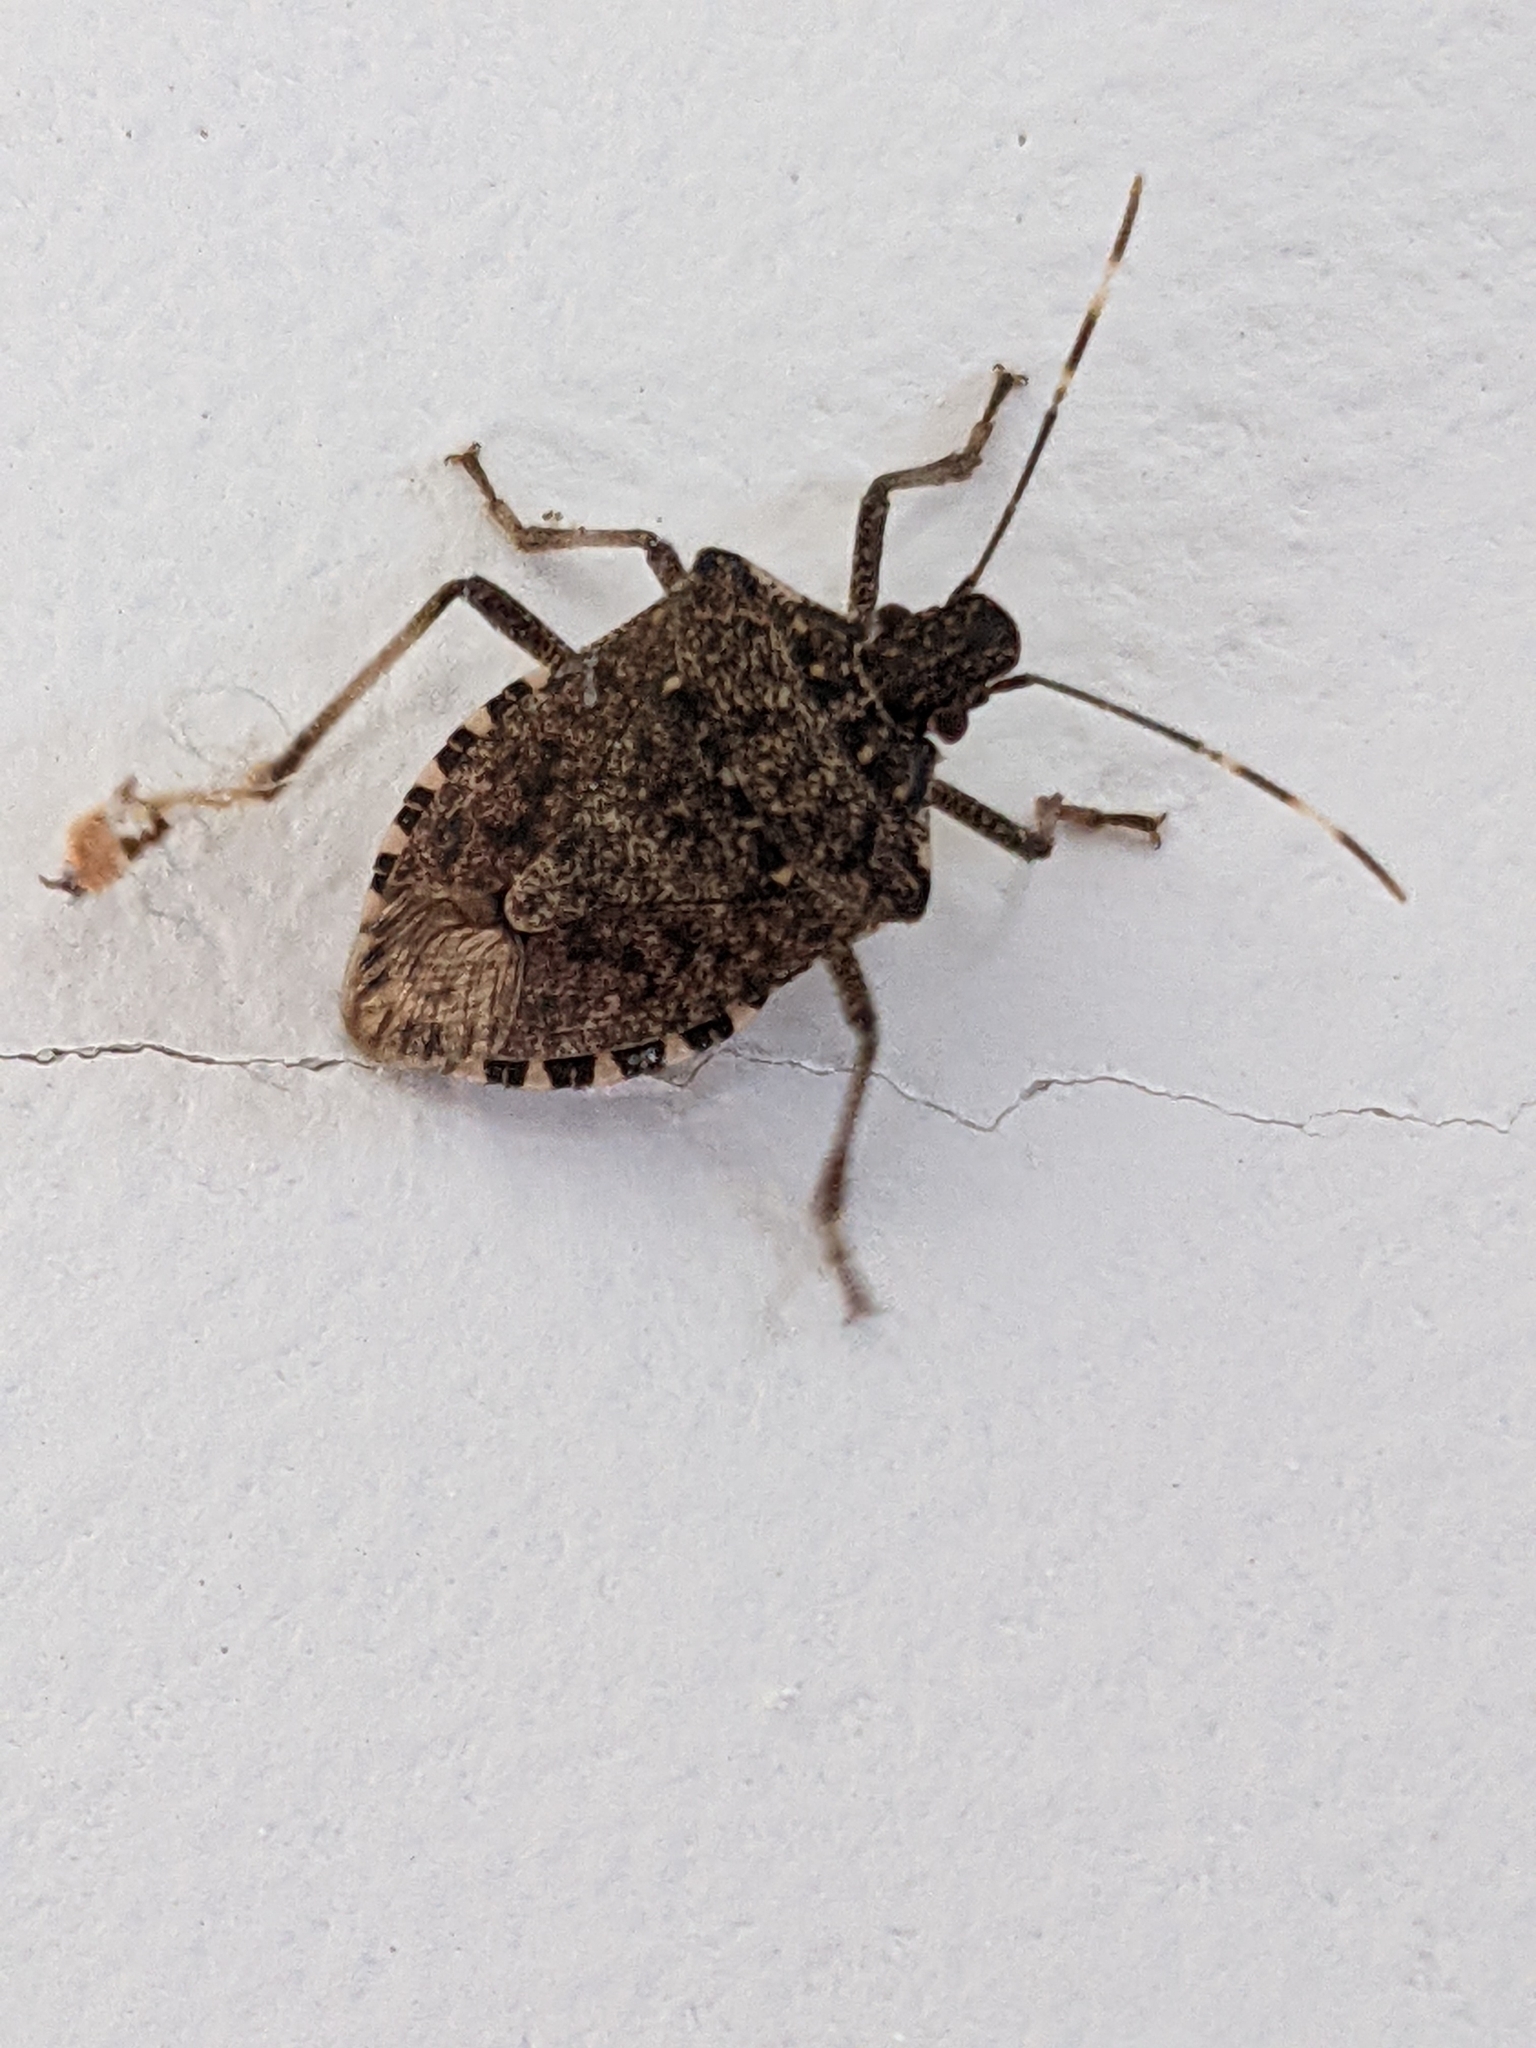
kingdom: Animalia
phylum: Arthropoda
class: Insecta
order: Hemiptera
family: Pentatomidae
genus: Halyomorpha
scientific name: Halyomorpha halys
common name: Brown marmorated stink bug
